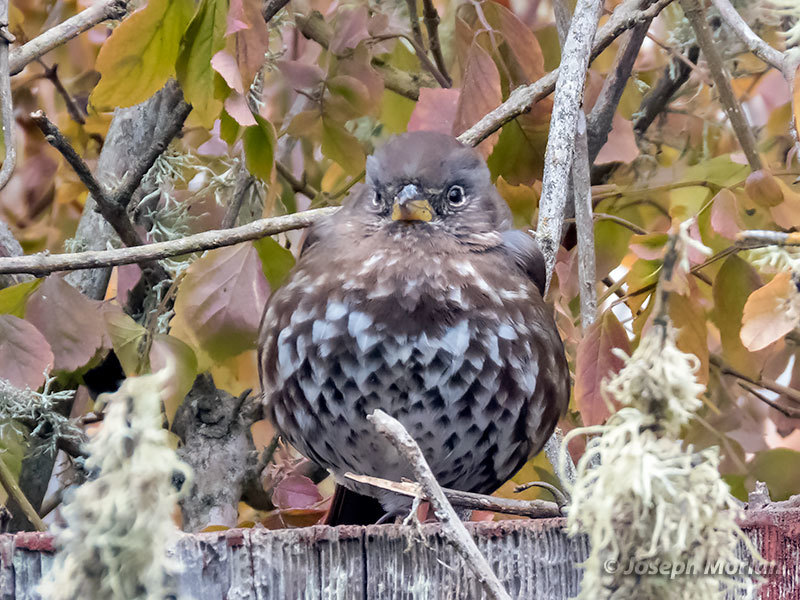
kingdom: Animalia
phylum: Chordata
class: Aves
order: Passeriformes
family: Passerellidae
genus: Passerella
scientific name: Passerella iliaca
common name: Fox sparrow
